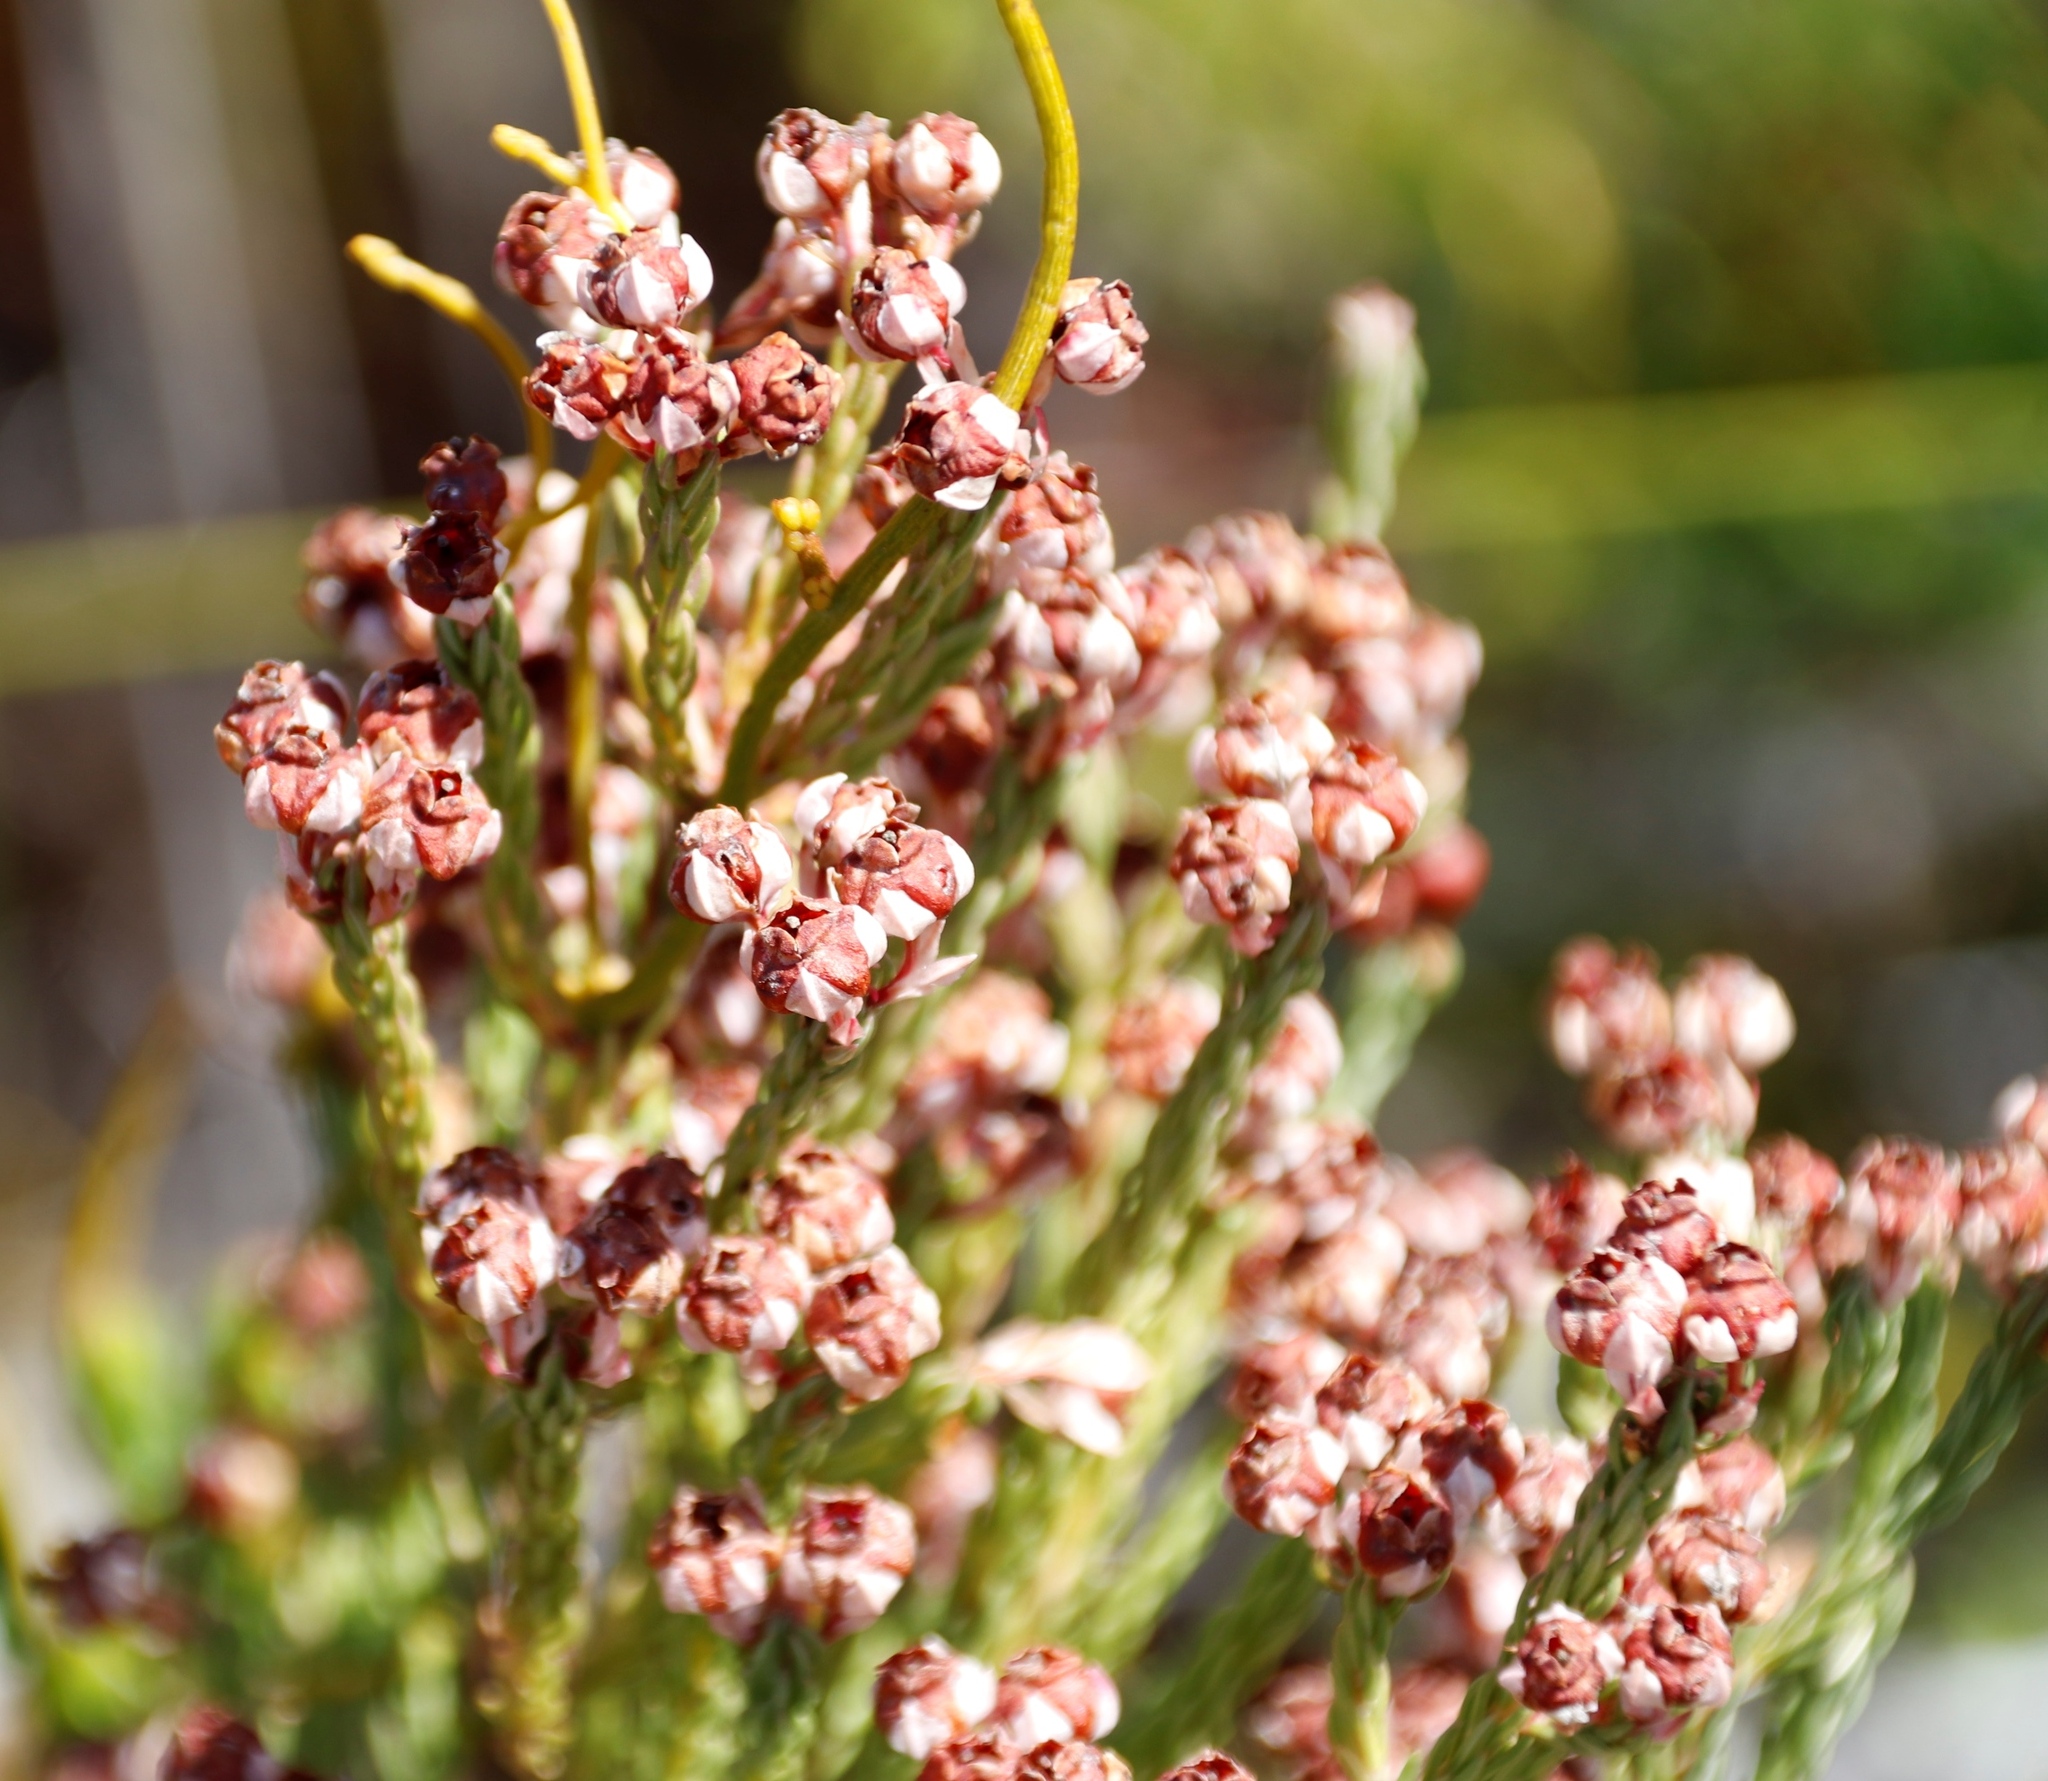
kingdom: Plantae
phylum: Tracheophyta
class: Magnoliopsida
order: Ericales
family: Ericaceae
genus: Erica
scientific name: Erica baccans
